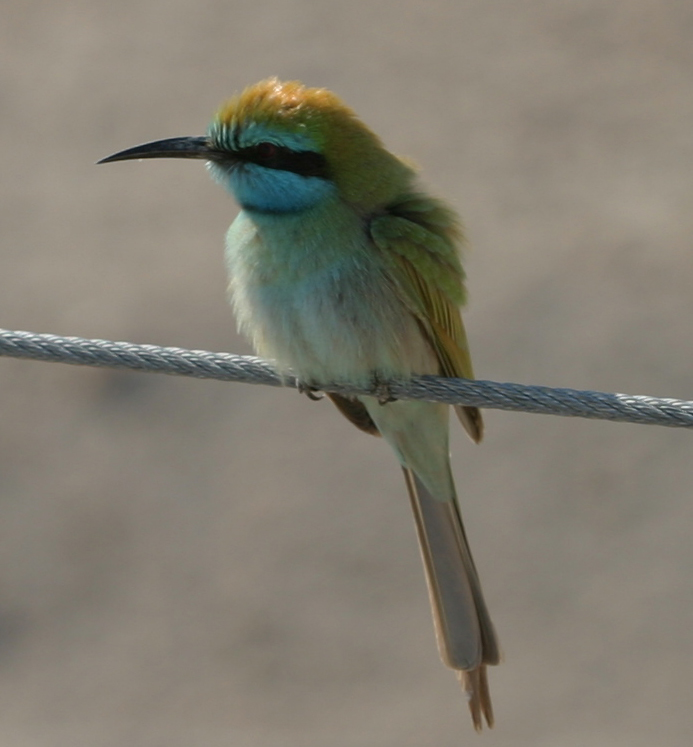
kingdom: Animalia
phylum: Chordata
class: Aves
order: Coraciiformes
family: Meropidae
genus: Merops
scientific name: Merops cyanophrys
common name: Arabian green bee-eater
